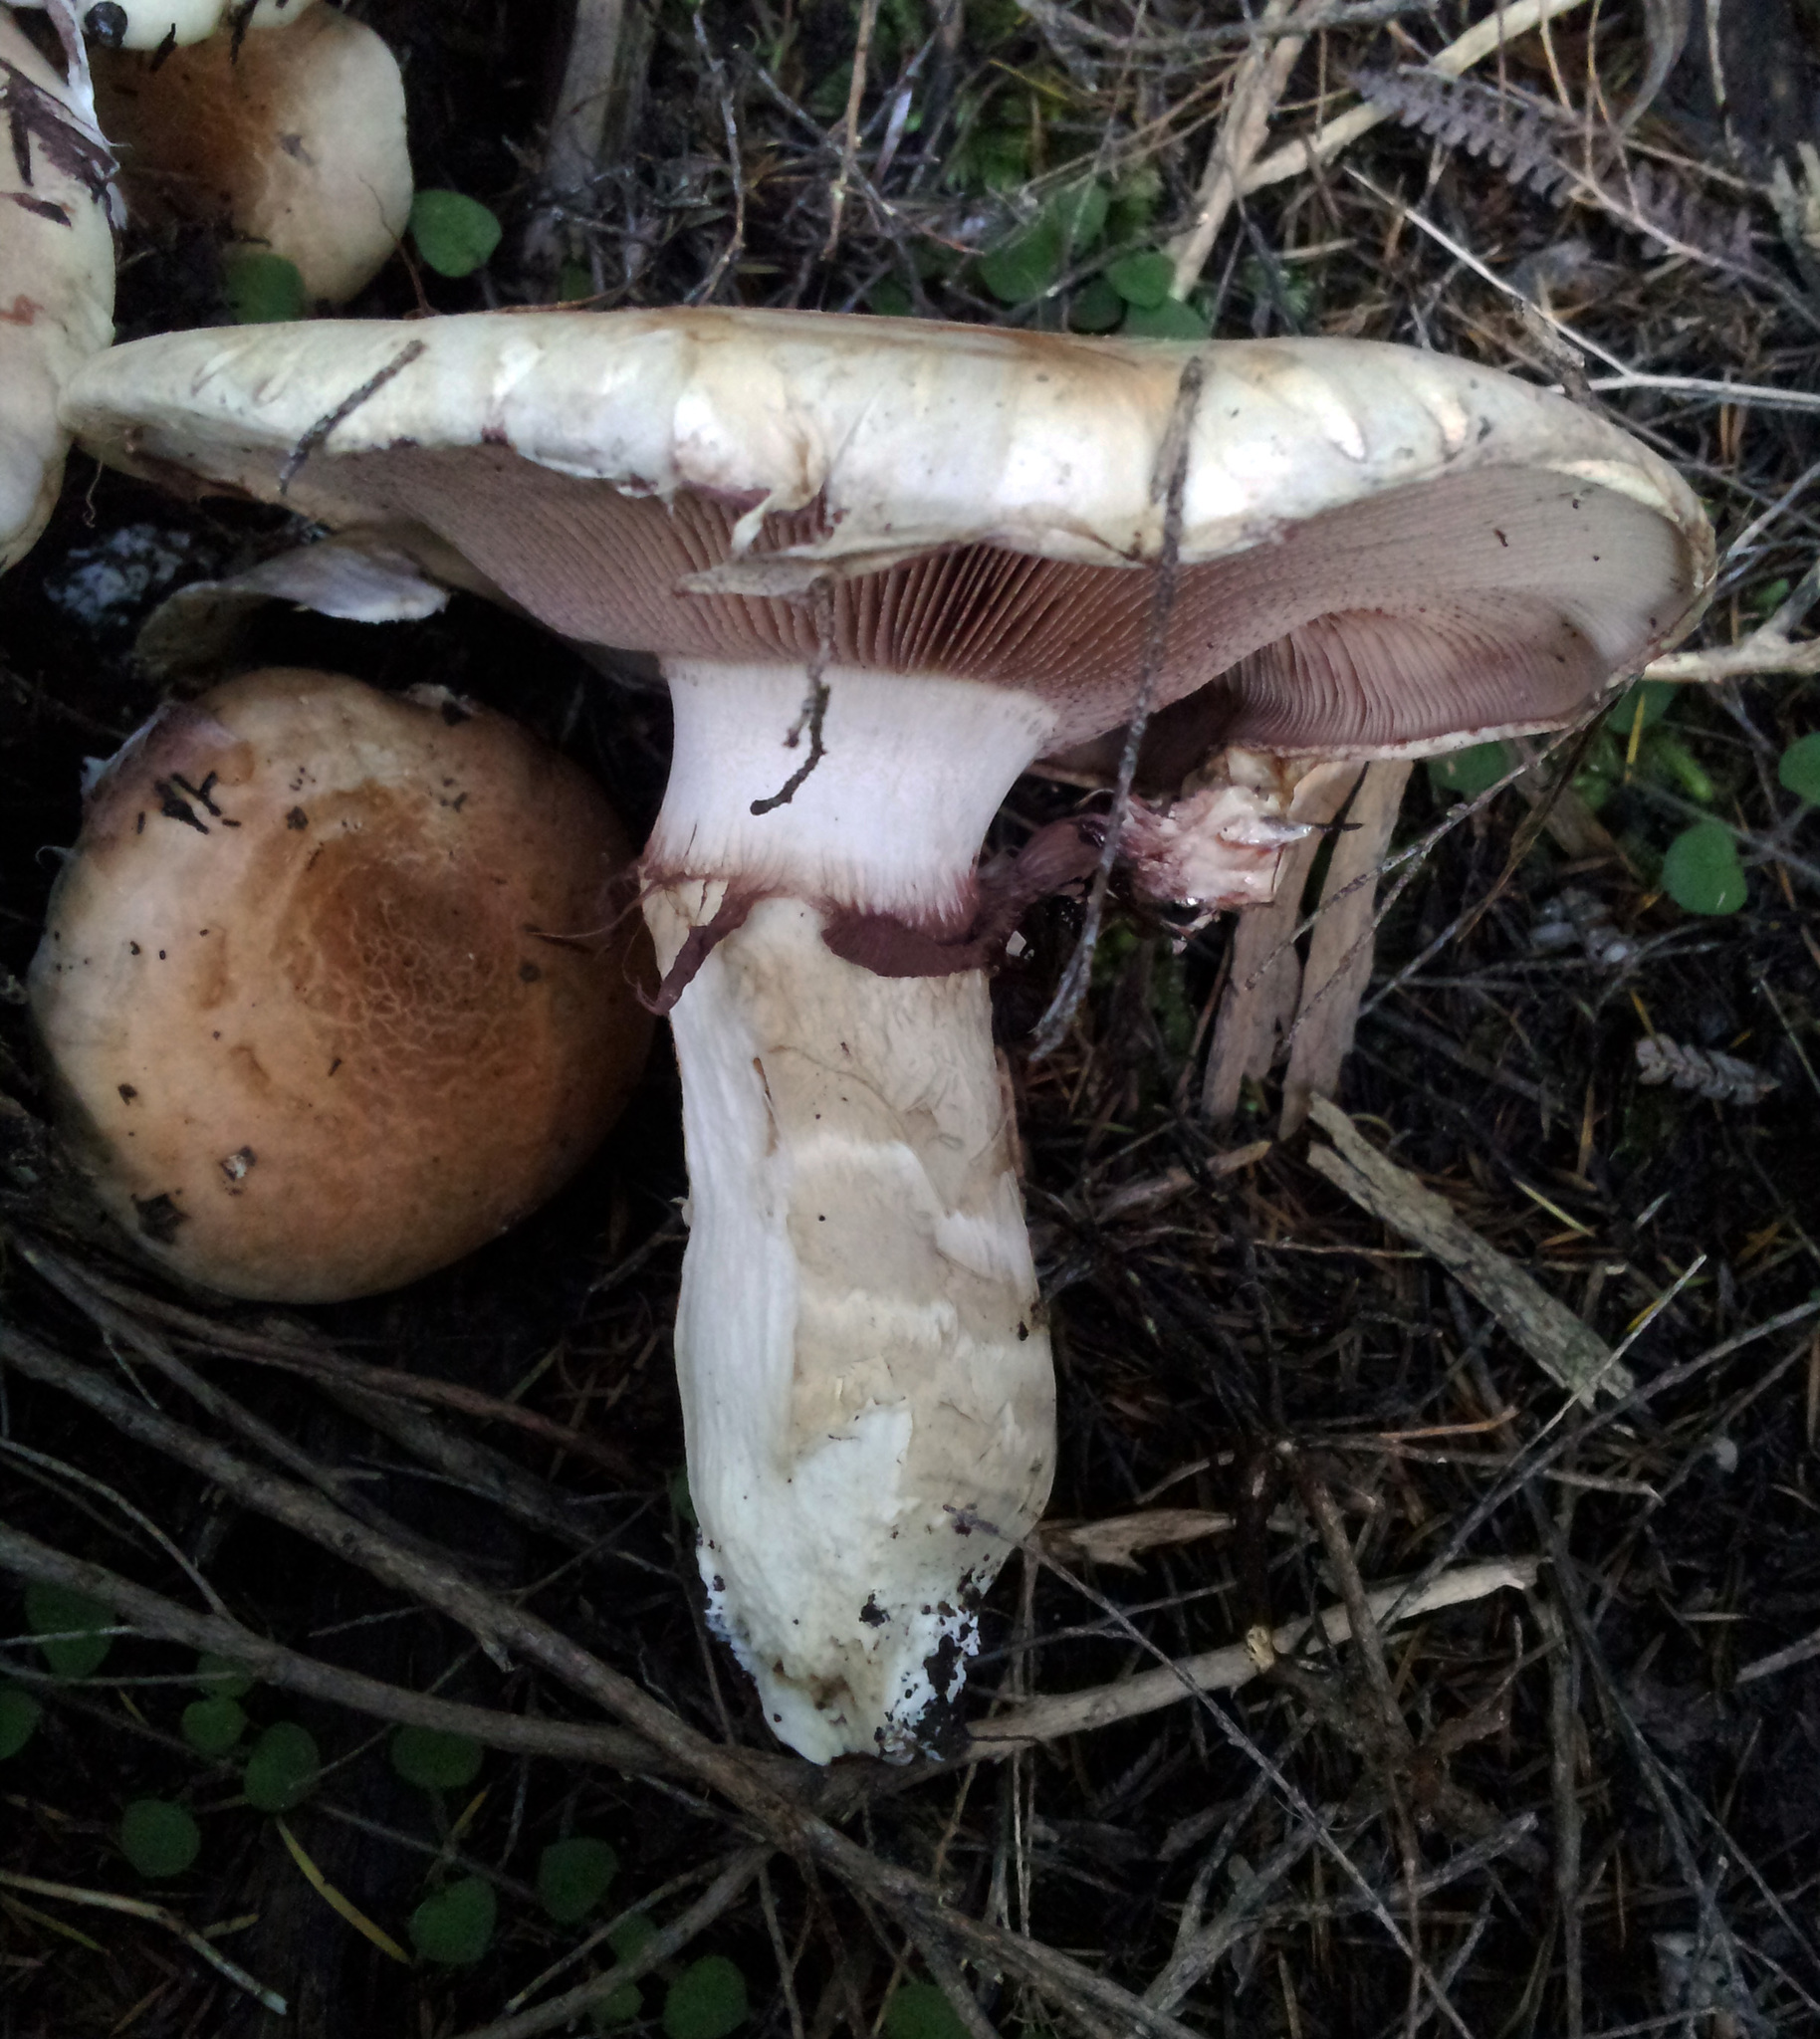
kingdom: Fungi
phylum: Basidiomycota
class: Agaricomycetes
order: Agaricales
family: Hymenogastraceae
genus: Hebeloma
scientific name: Hebeloma victoriense
